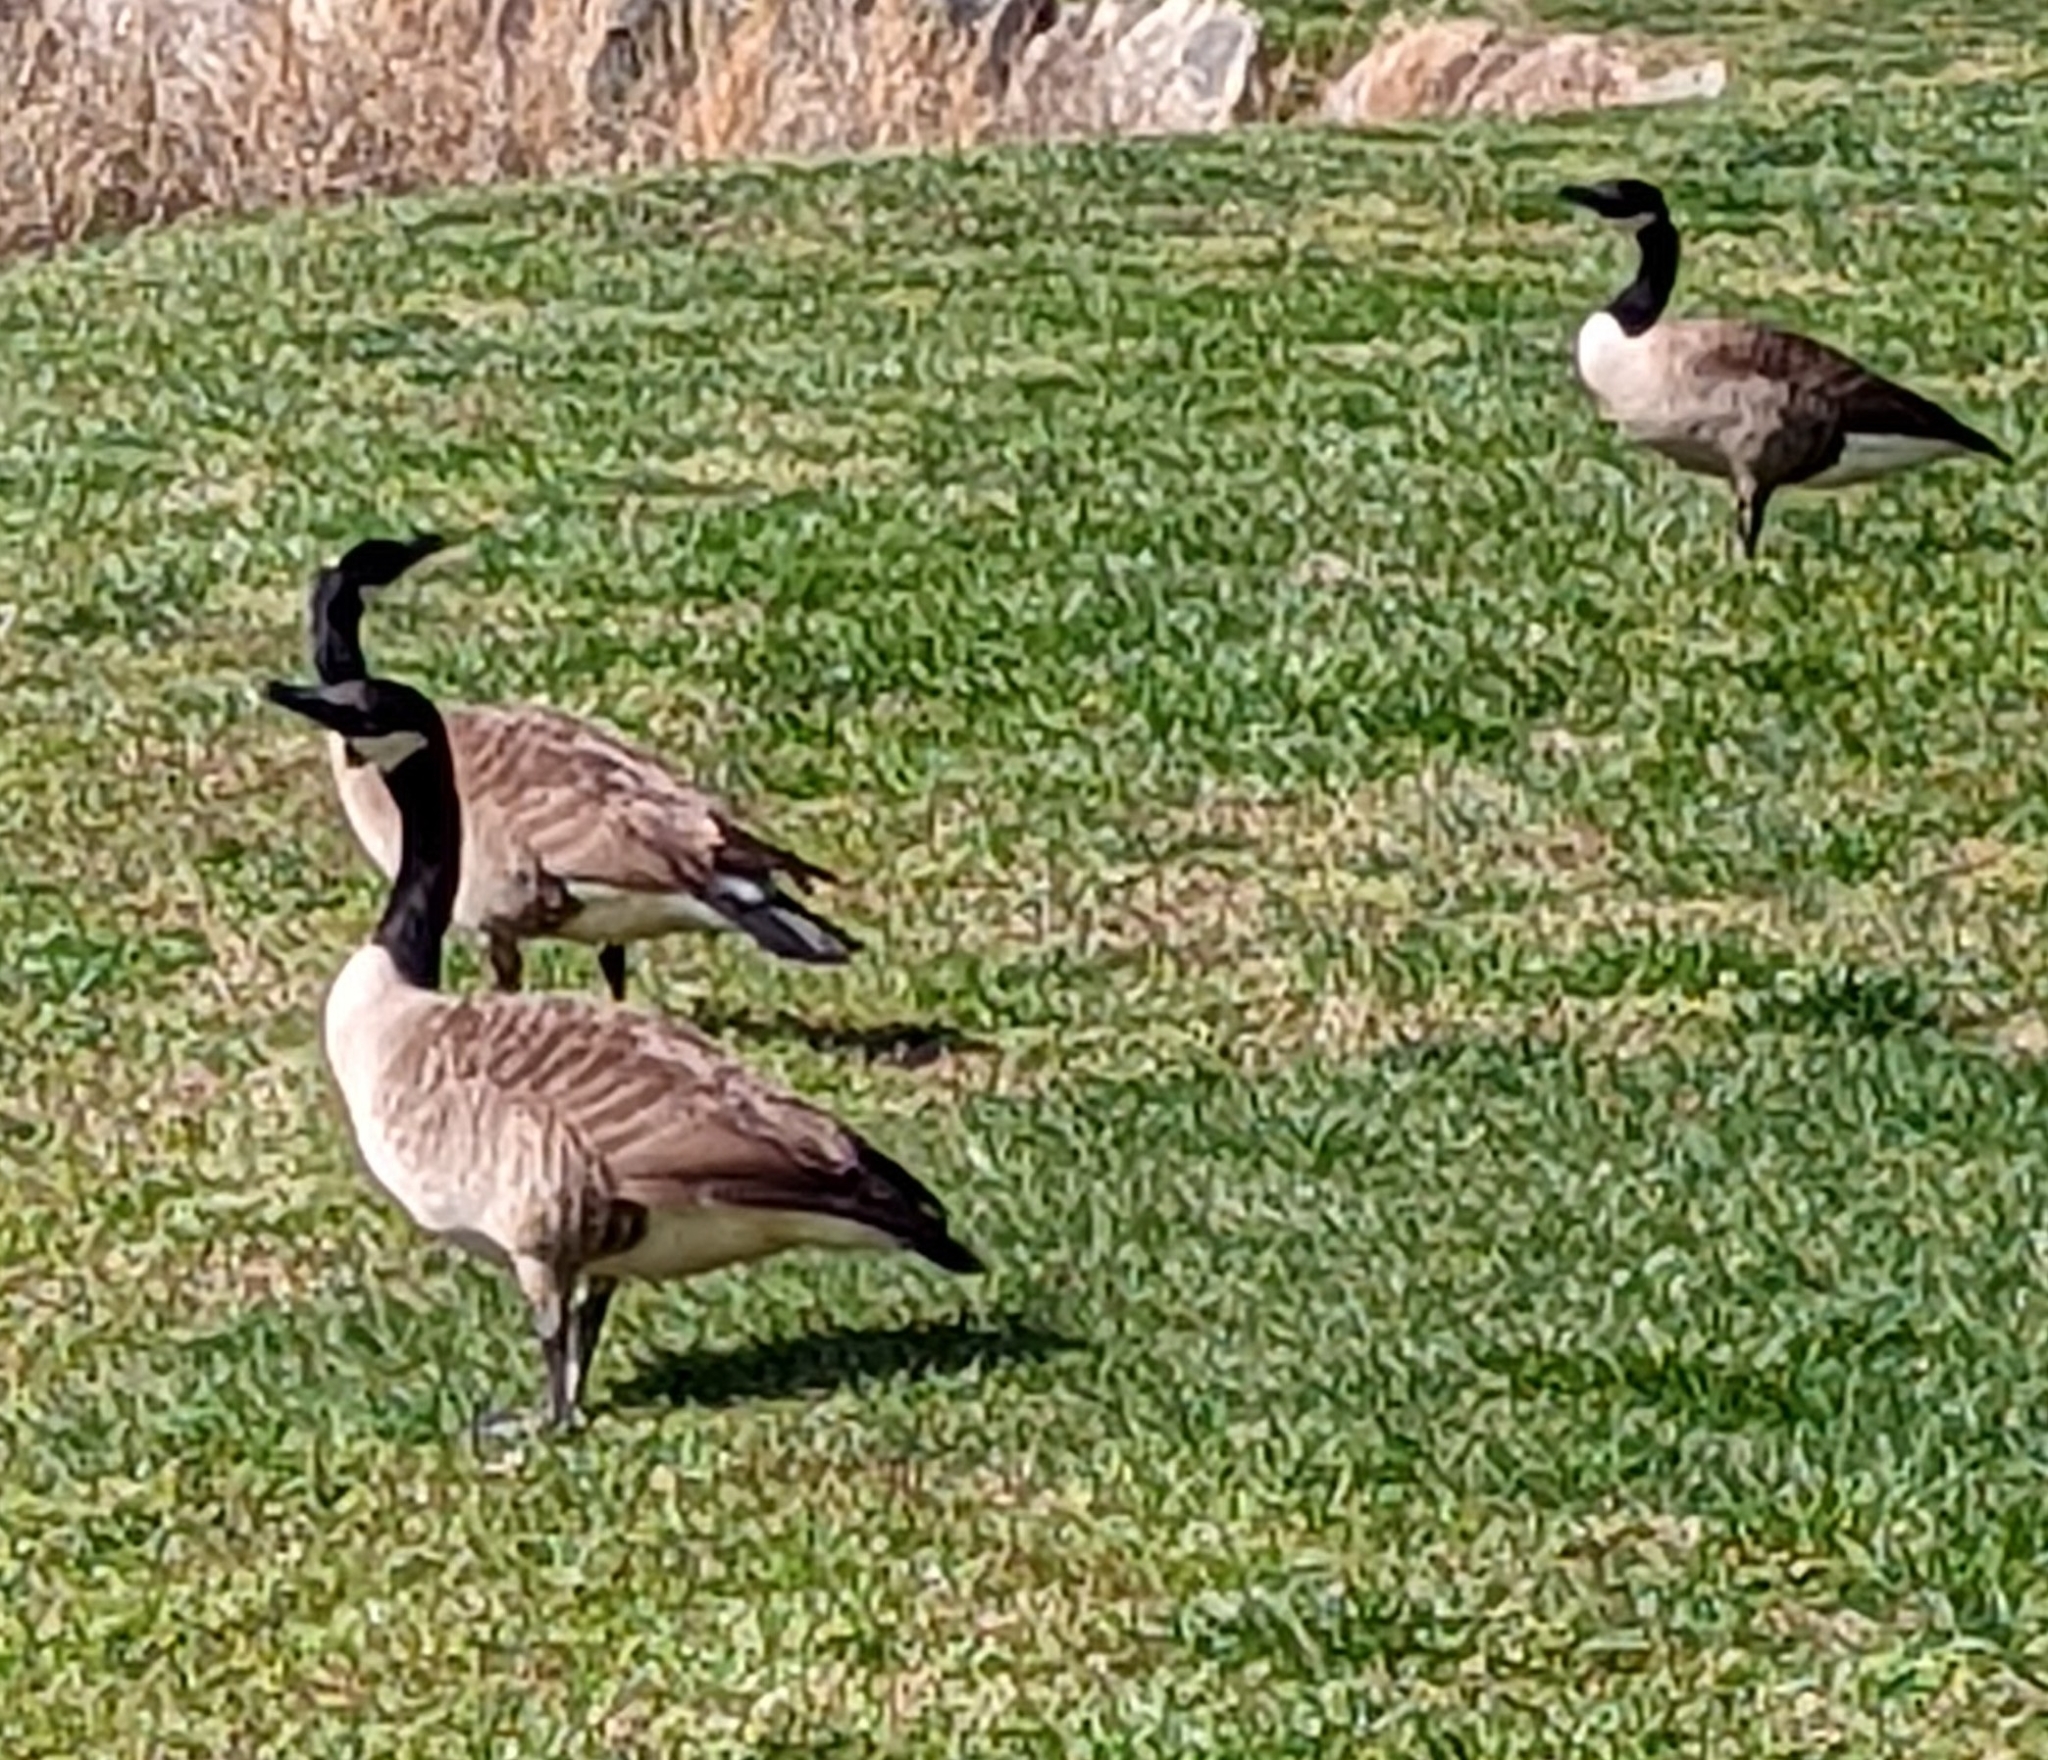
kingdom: Animalia
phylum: Chordata
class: Aves
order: Anseriformes
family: Anatidae
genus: Branta
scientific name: Branta canadensis
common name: Canada goose
